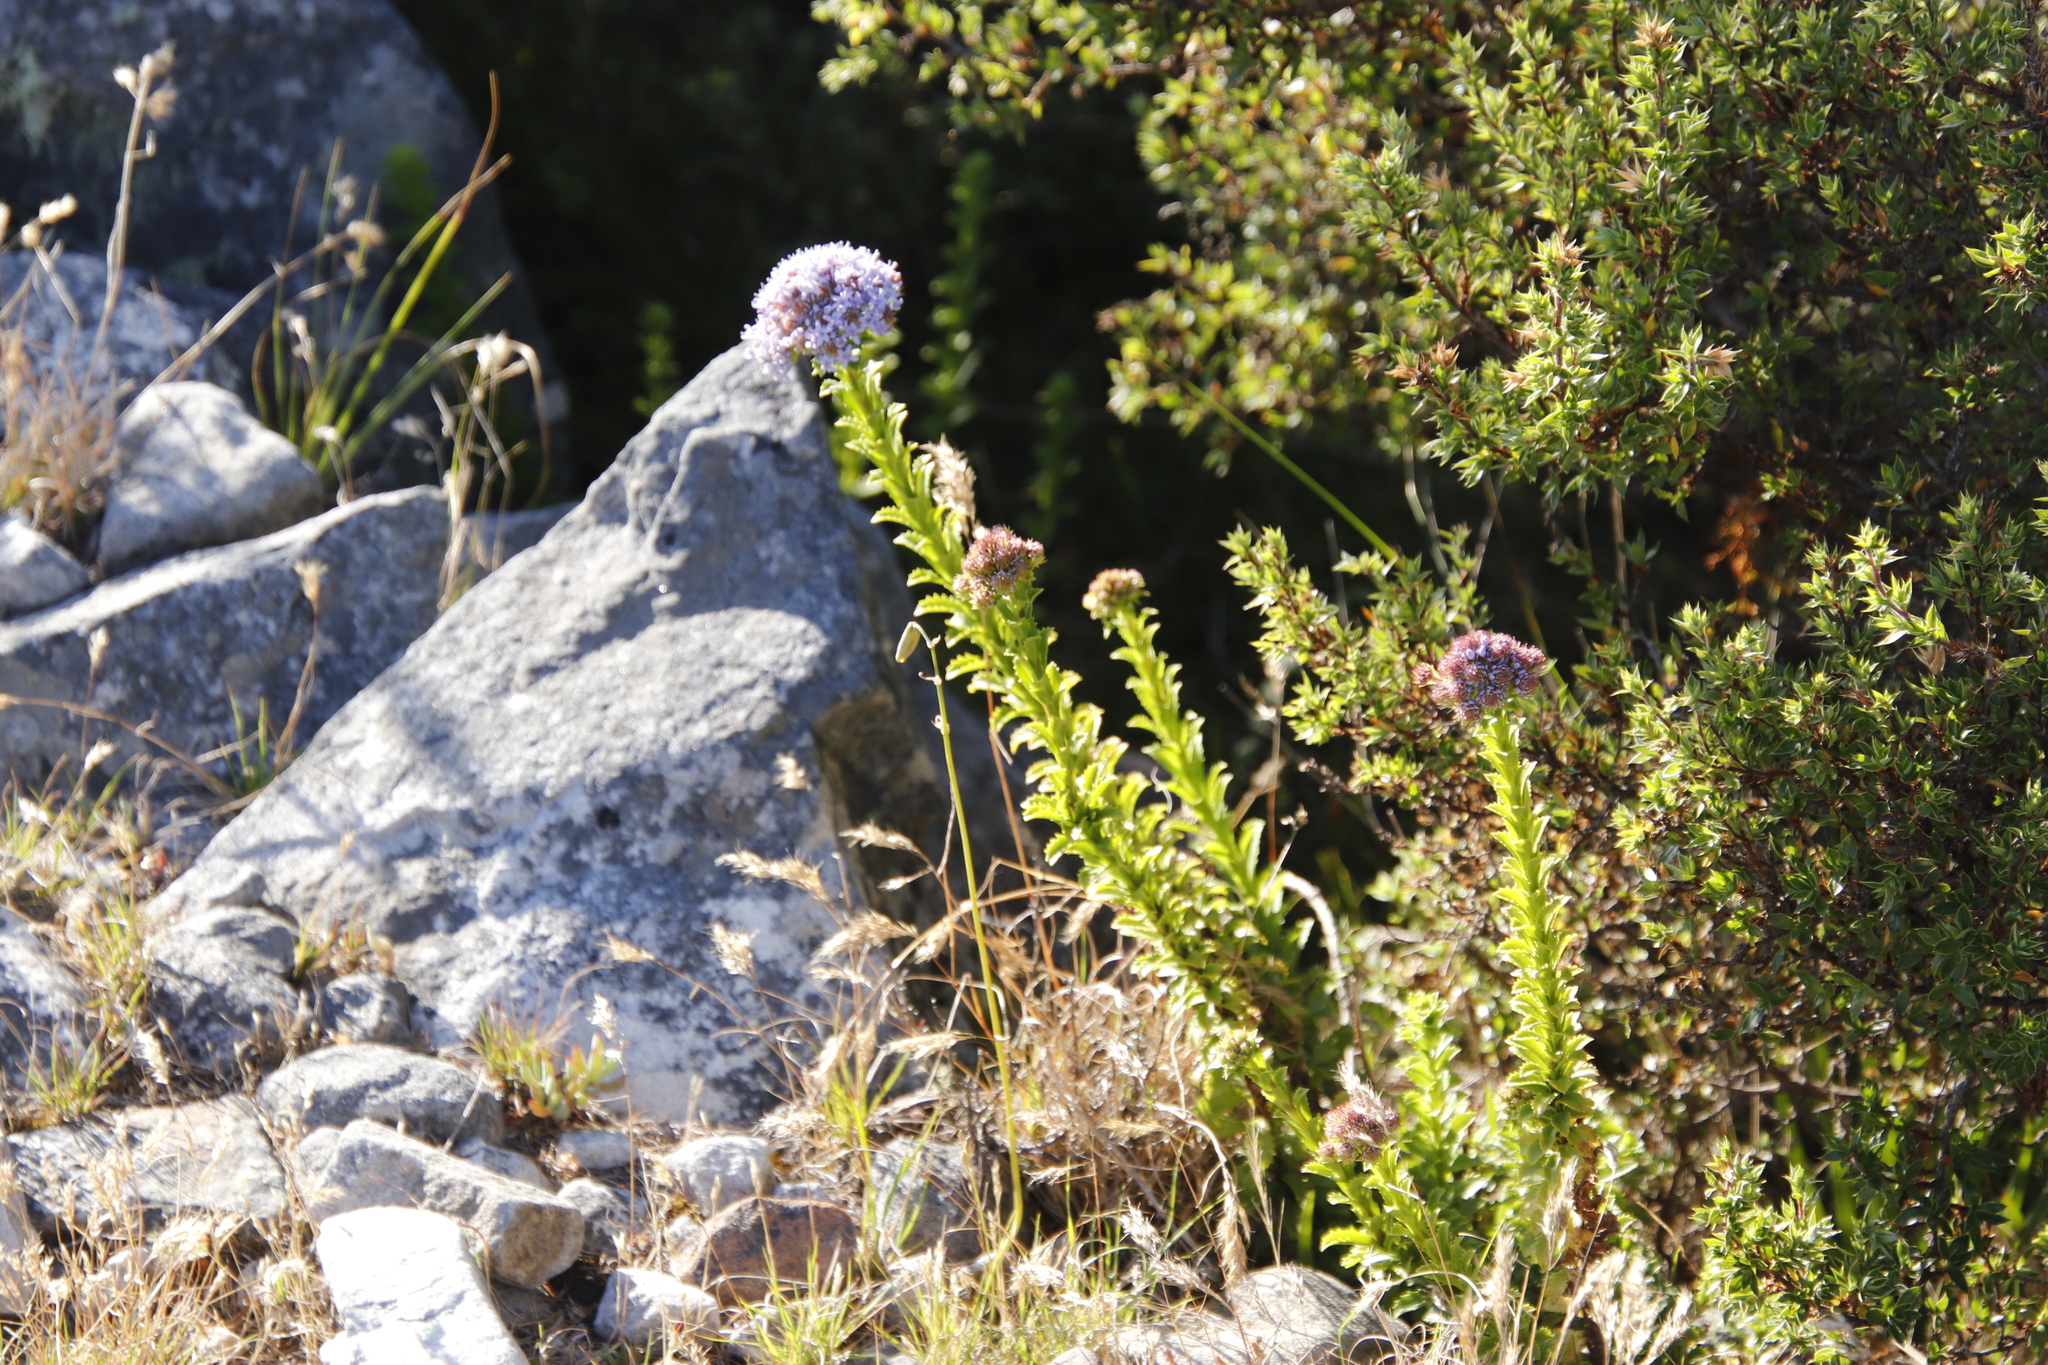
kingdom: Plantae
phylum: Tracheophyta
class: Magnoliopsida
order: Lamiales
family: Scrophulariaceae
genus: Pseudoselago
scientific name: Pseudoselago serrata
